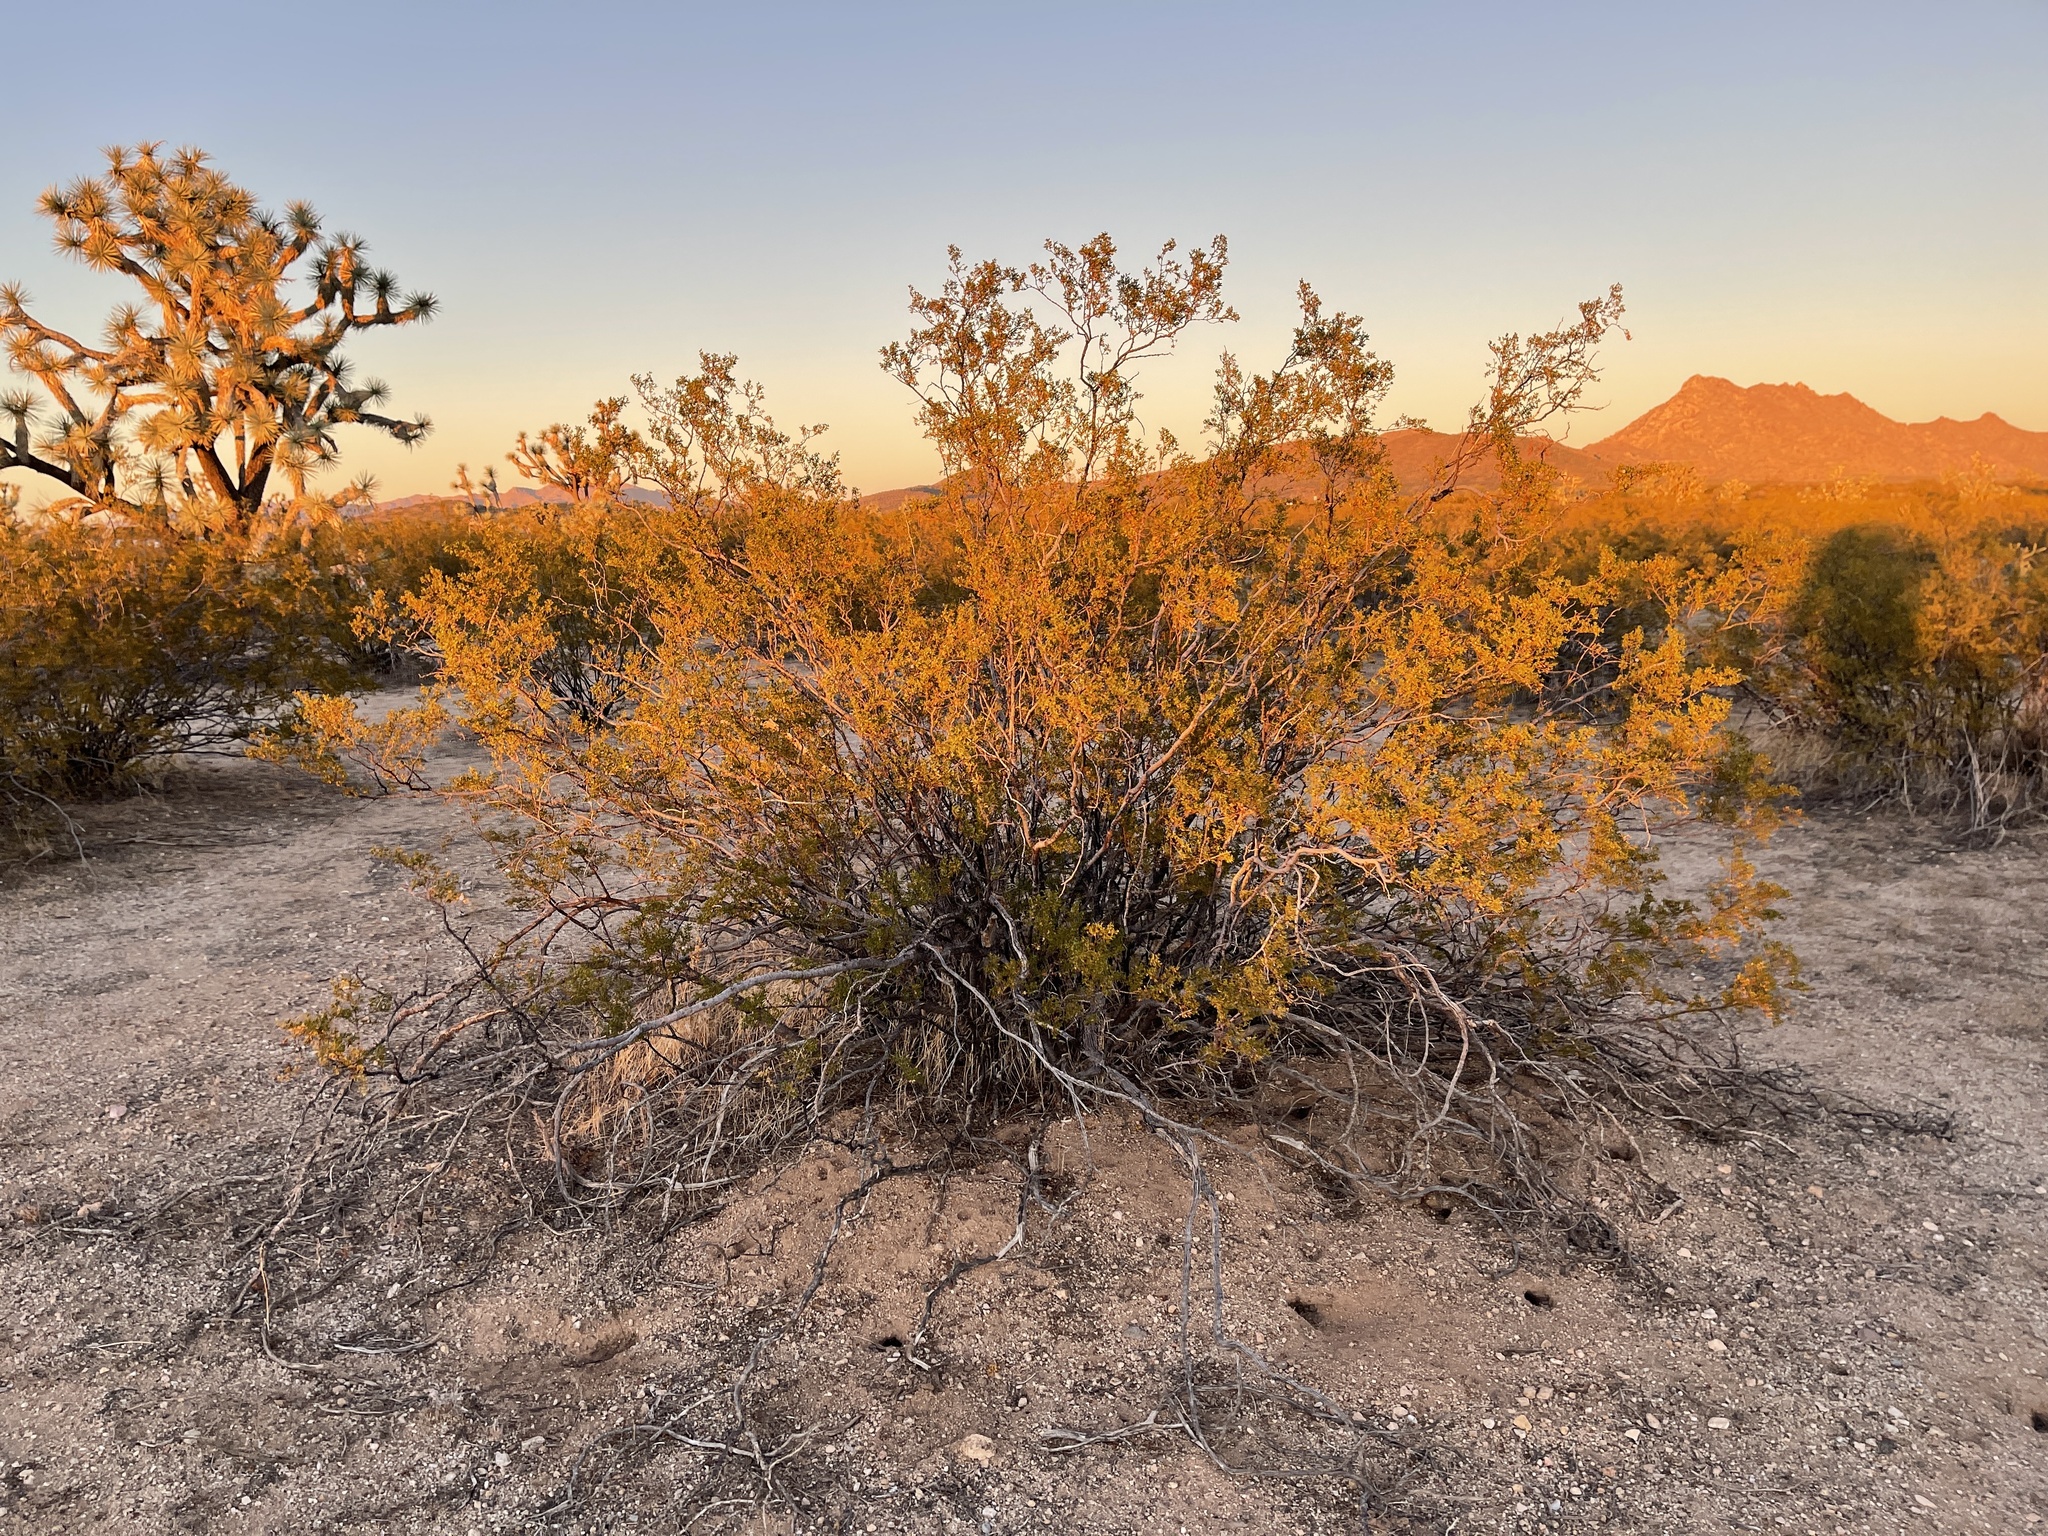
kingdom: Plantae
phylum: Tracheophyta
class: Magnoliopsida
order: Zygophyllales
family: Zygophyllaceae
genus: Larrea
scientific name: Larrea tridentata
